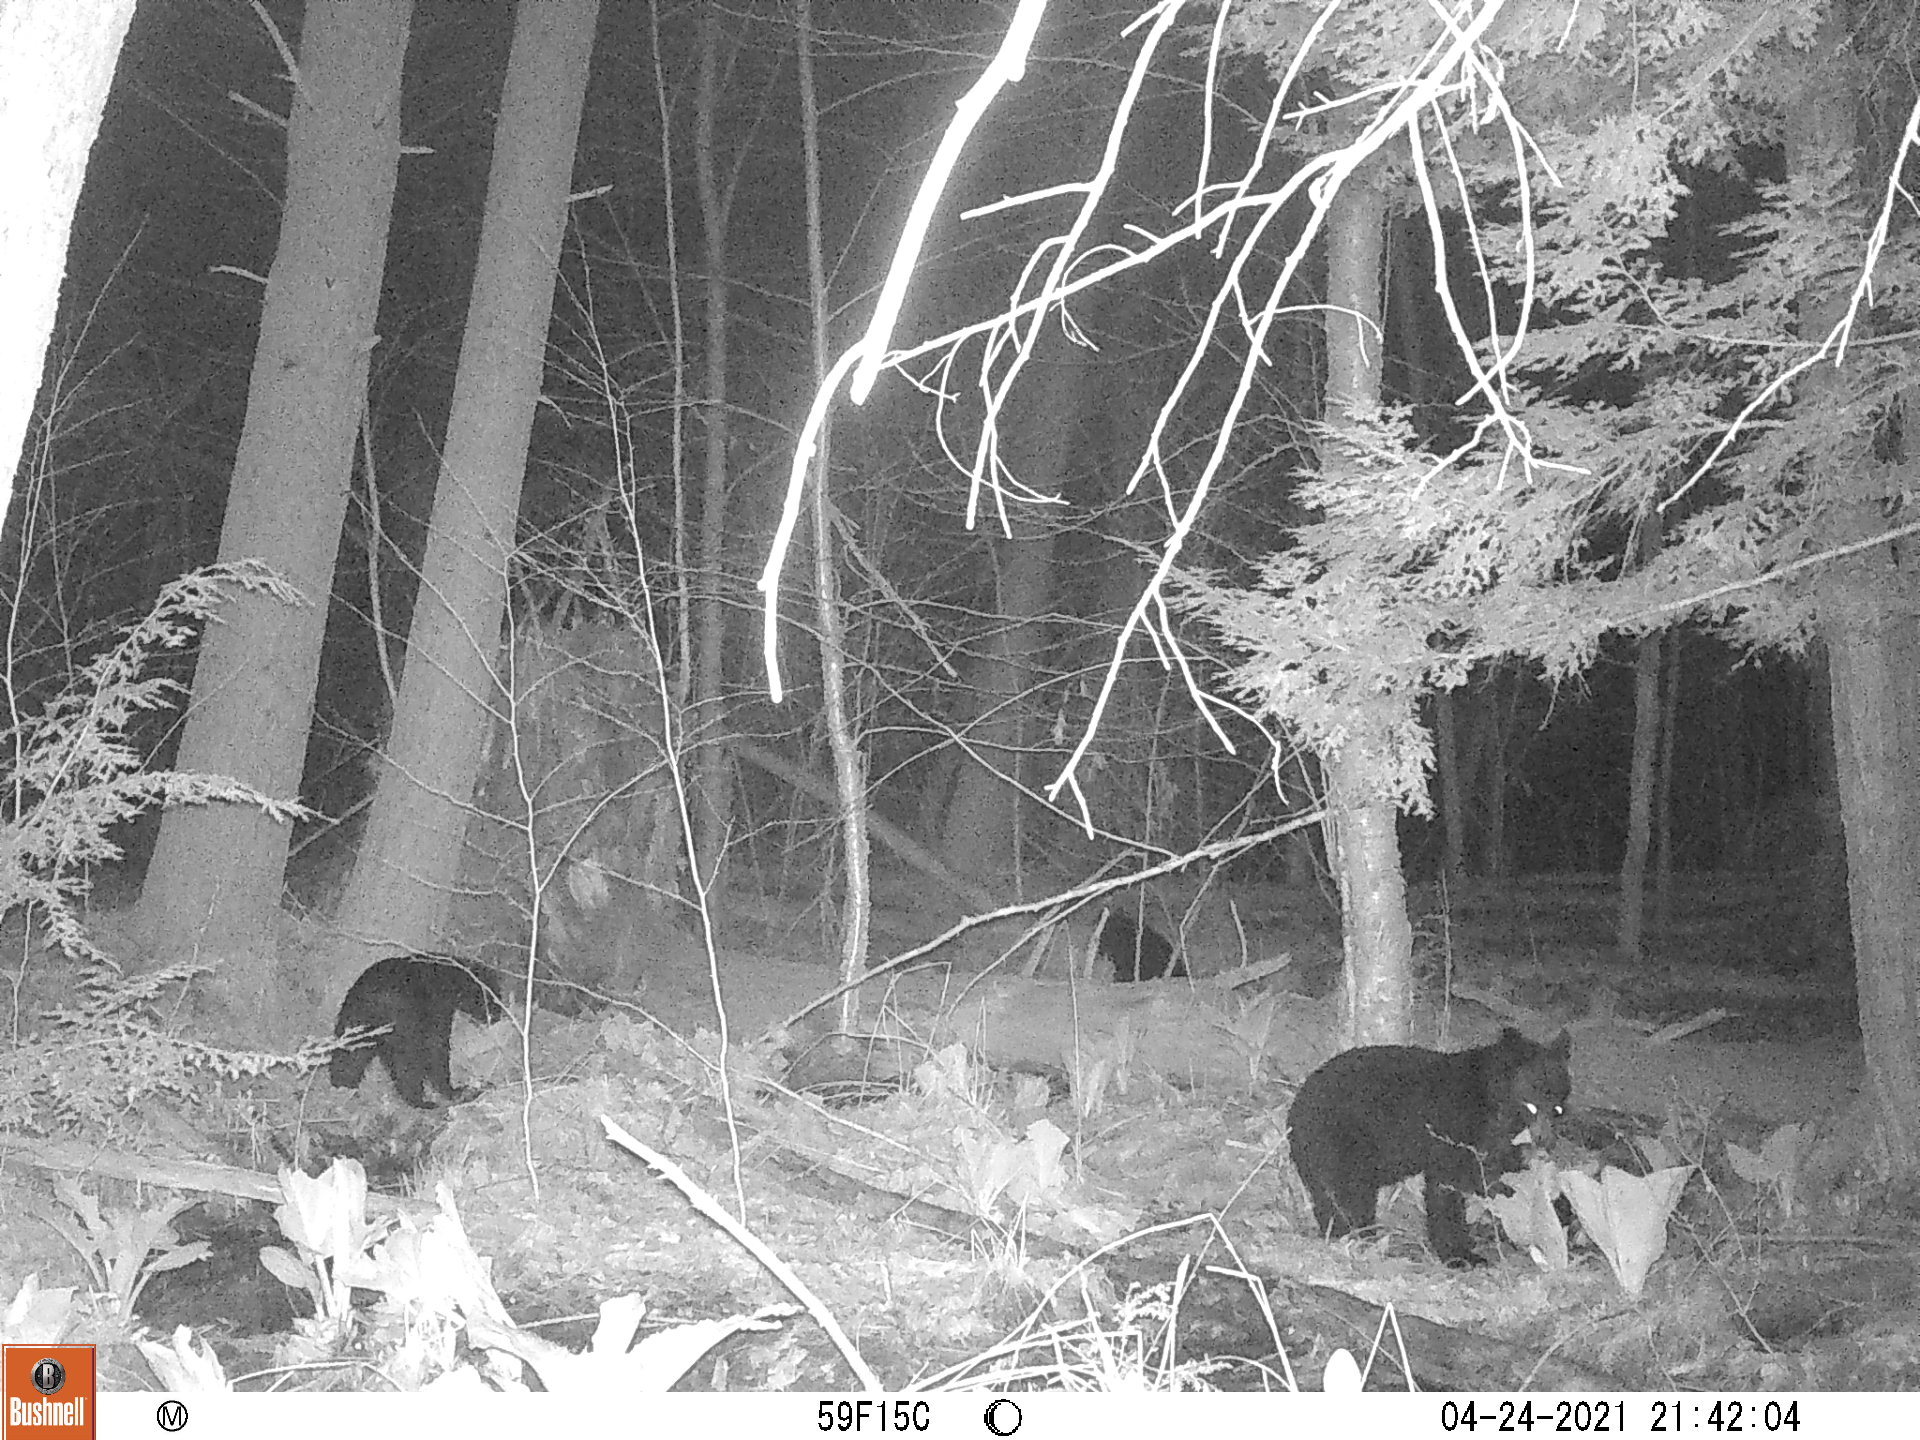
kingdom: Animalia
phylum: Chordata
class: Mammalia
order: Carnivora
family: Ursidae
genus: Ursus
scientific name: Ursus americanus
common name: American black bear
